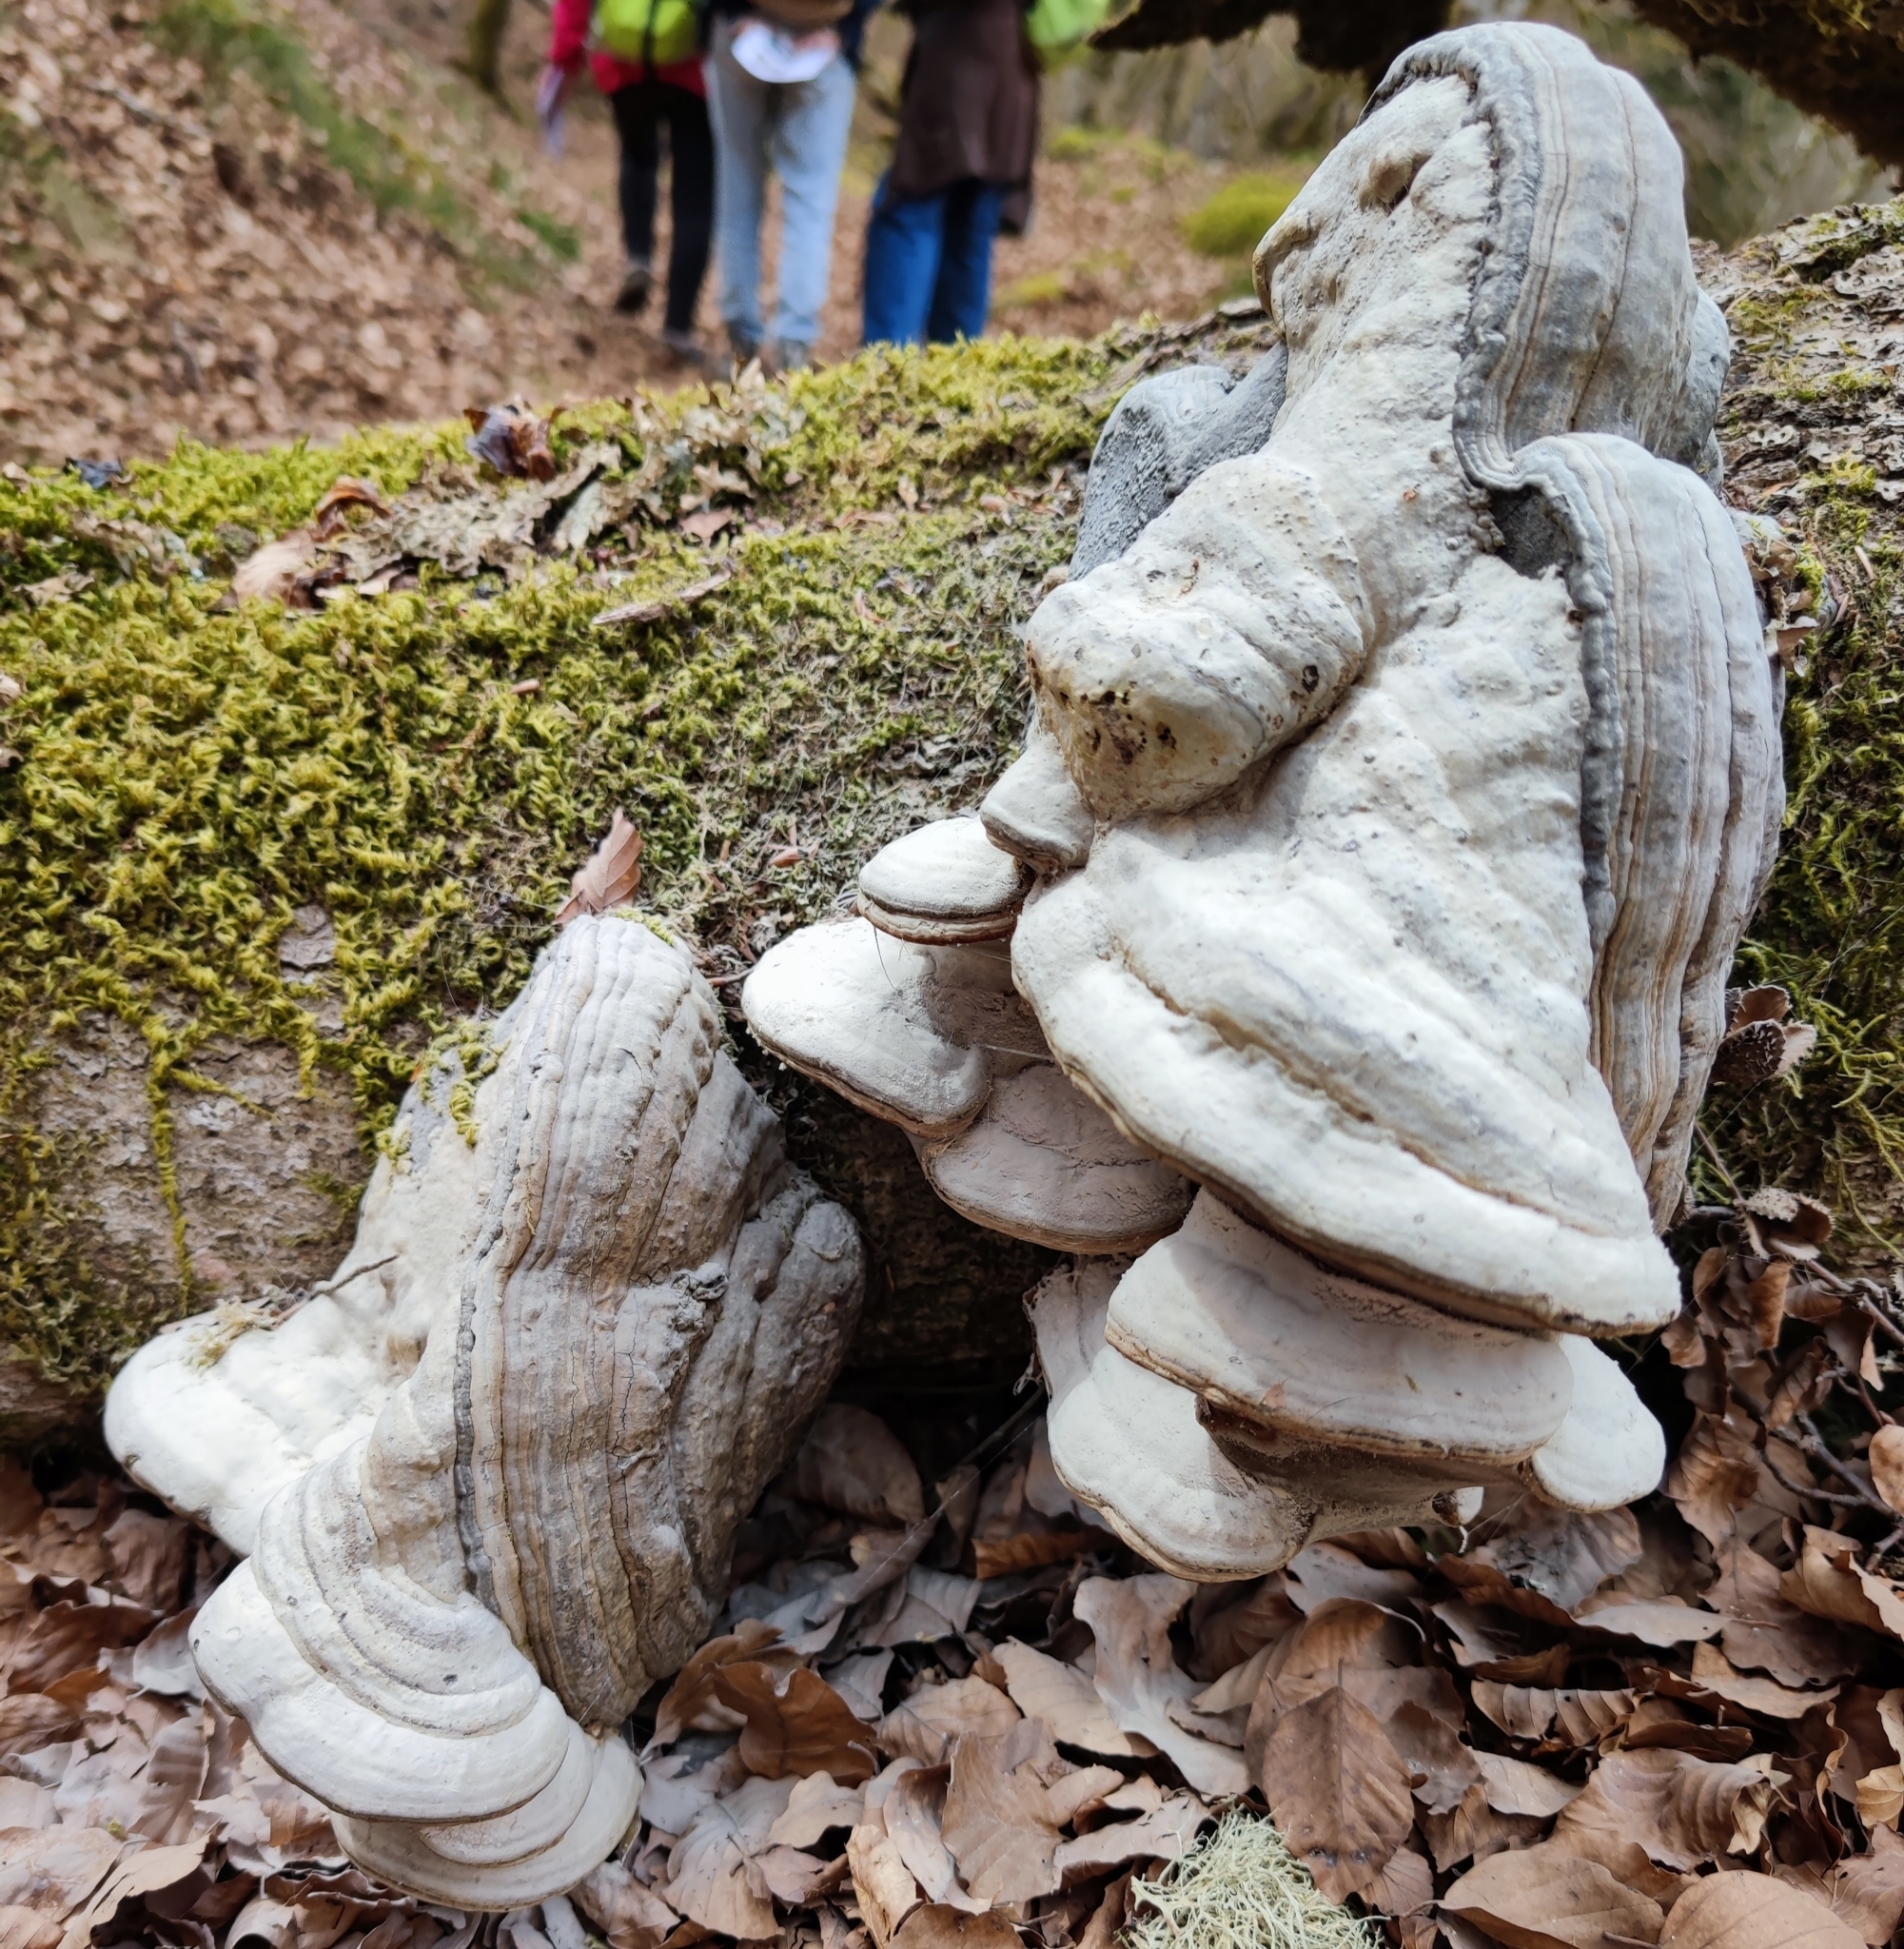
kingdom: Fungi
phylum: Basidiomycota
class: Agaricomycetes
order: Polyporales
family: Polyporaceae
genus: Fomes
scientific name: Fomes fomentarius
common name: Hoof fungus
